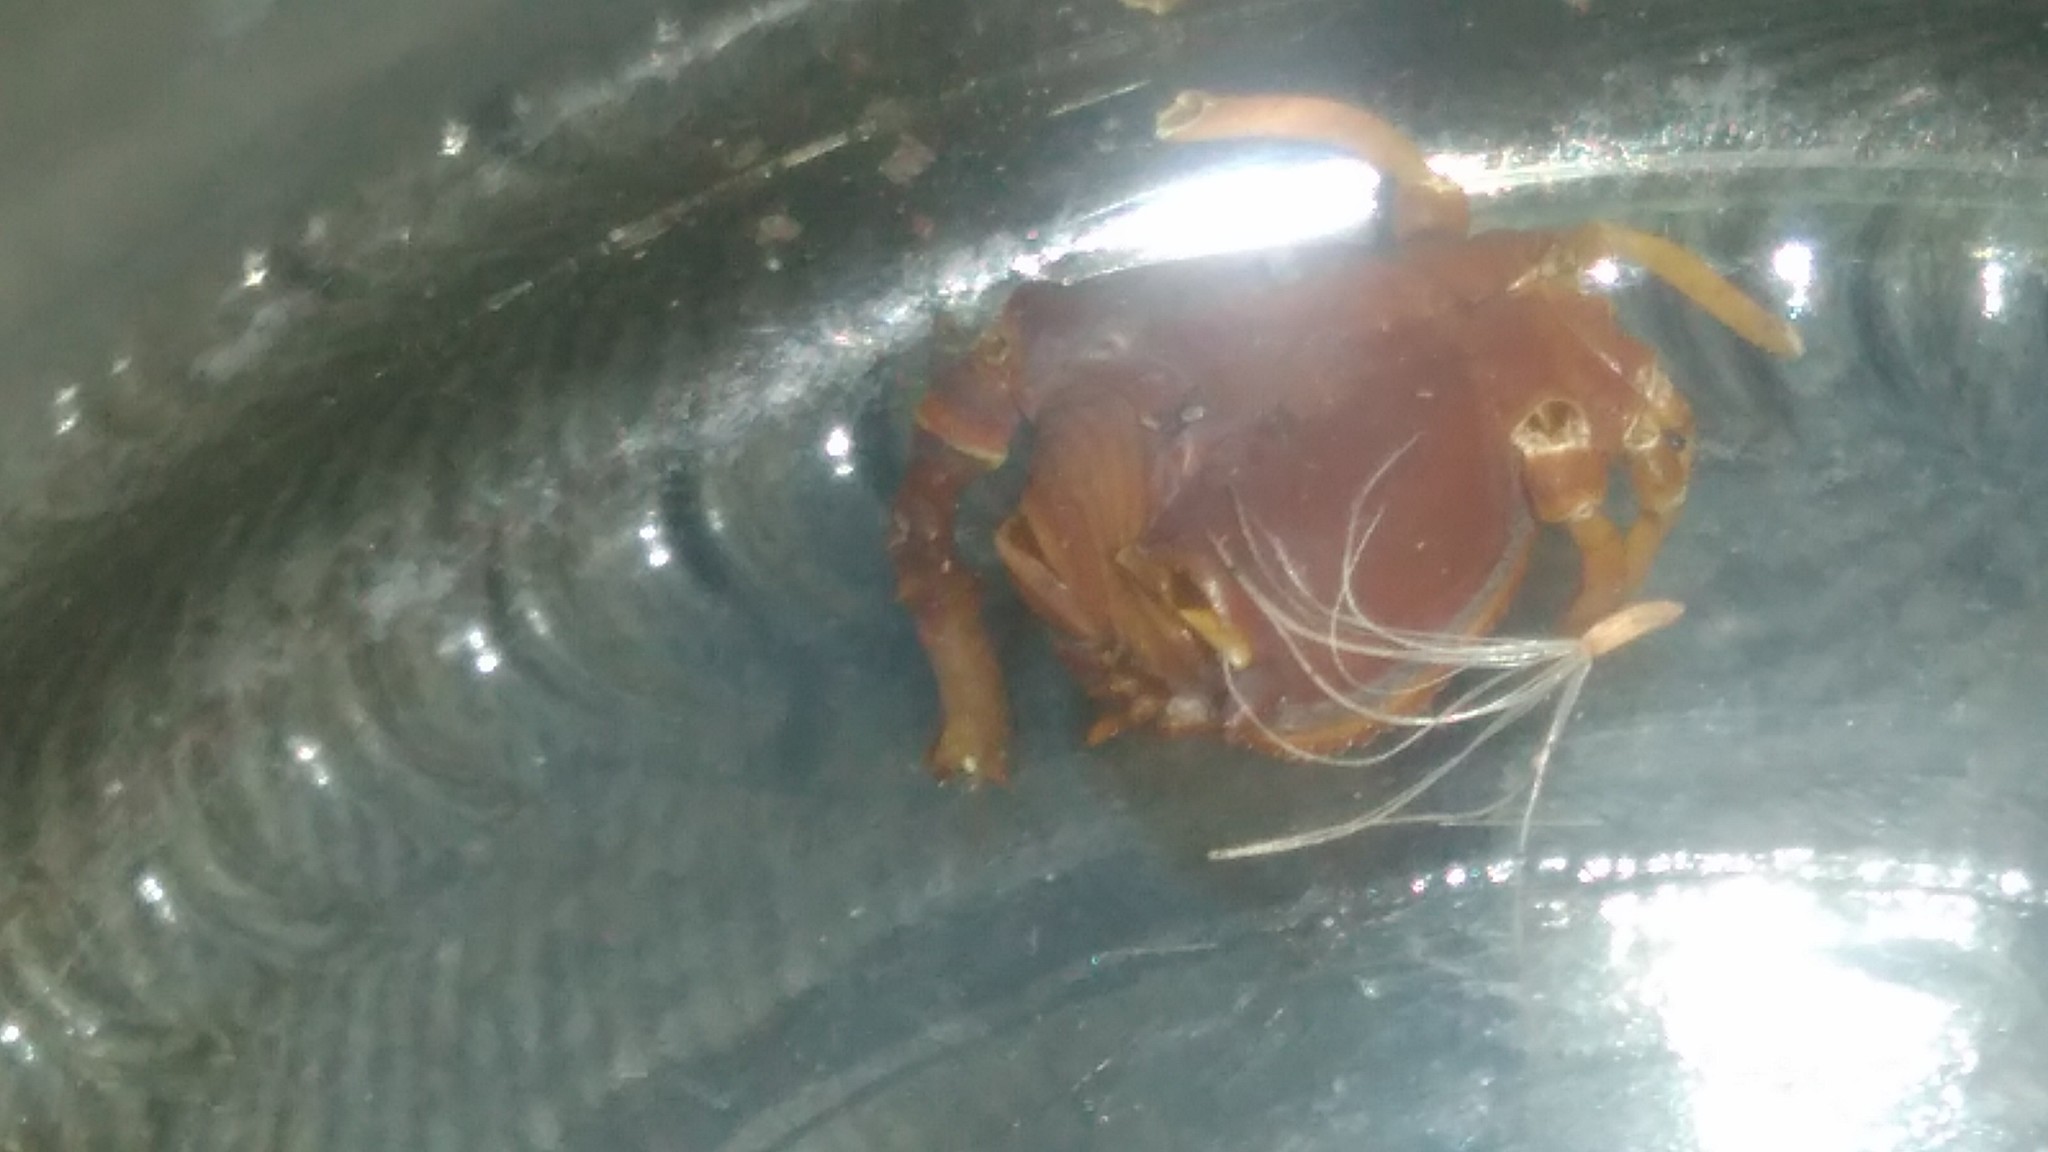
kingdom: Animalia
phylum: Arthropoda
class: Arachnida
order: Opiliones
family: Gonyleptidae
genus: Acanthopachylus
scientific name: Acanthopachylus robustus
